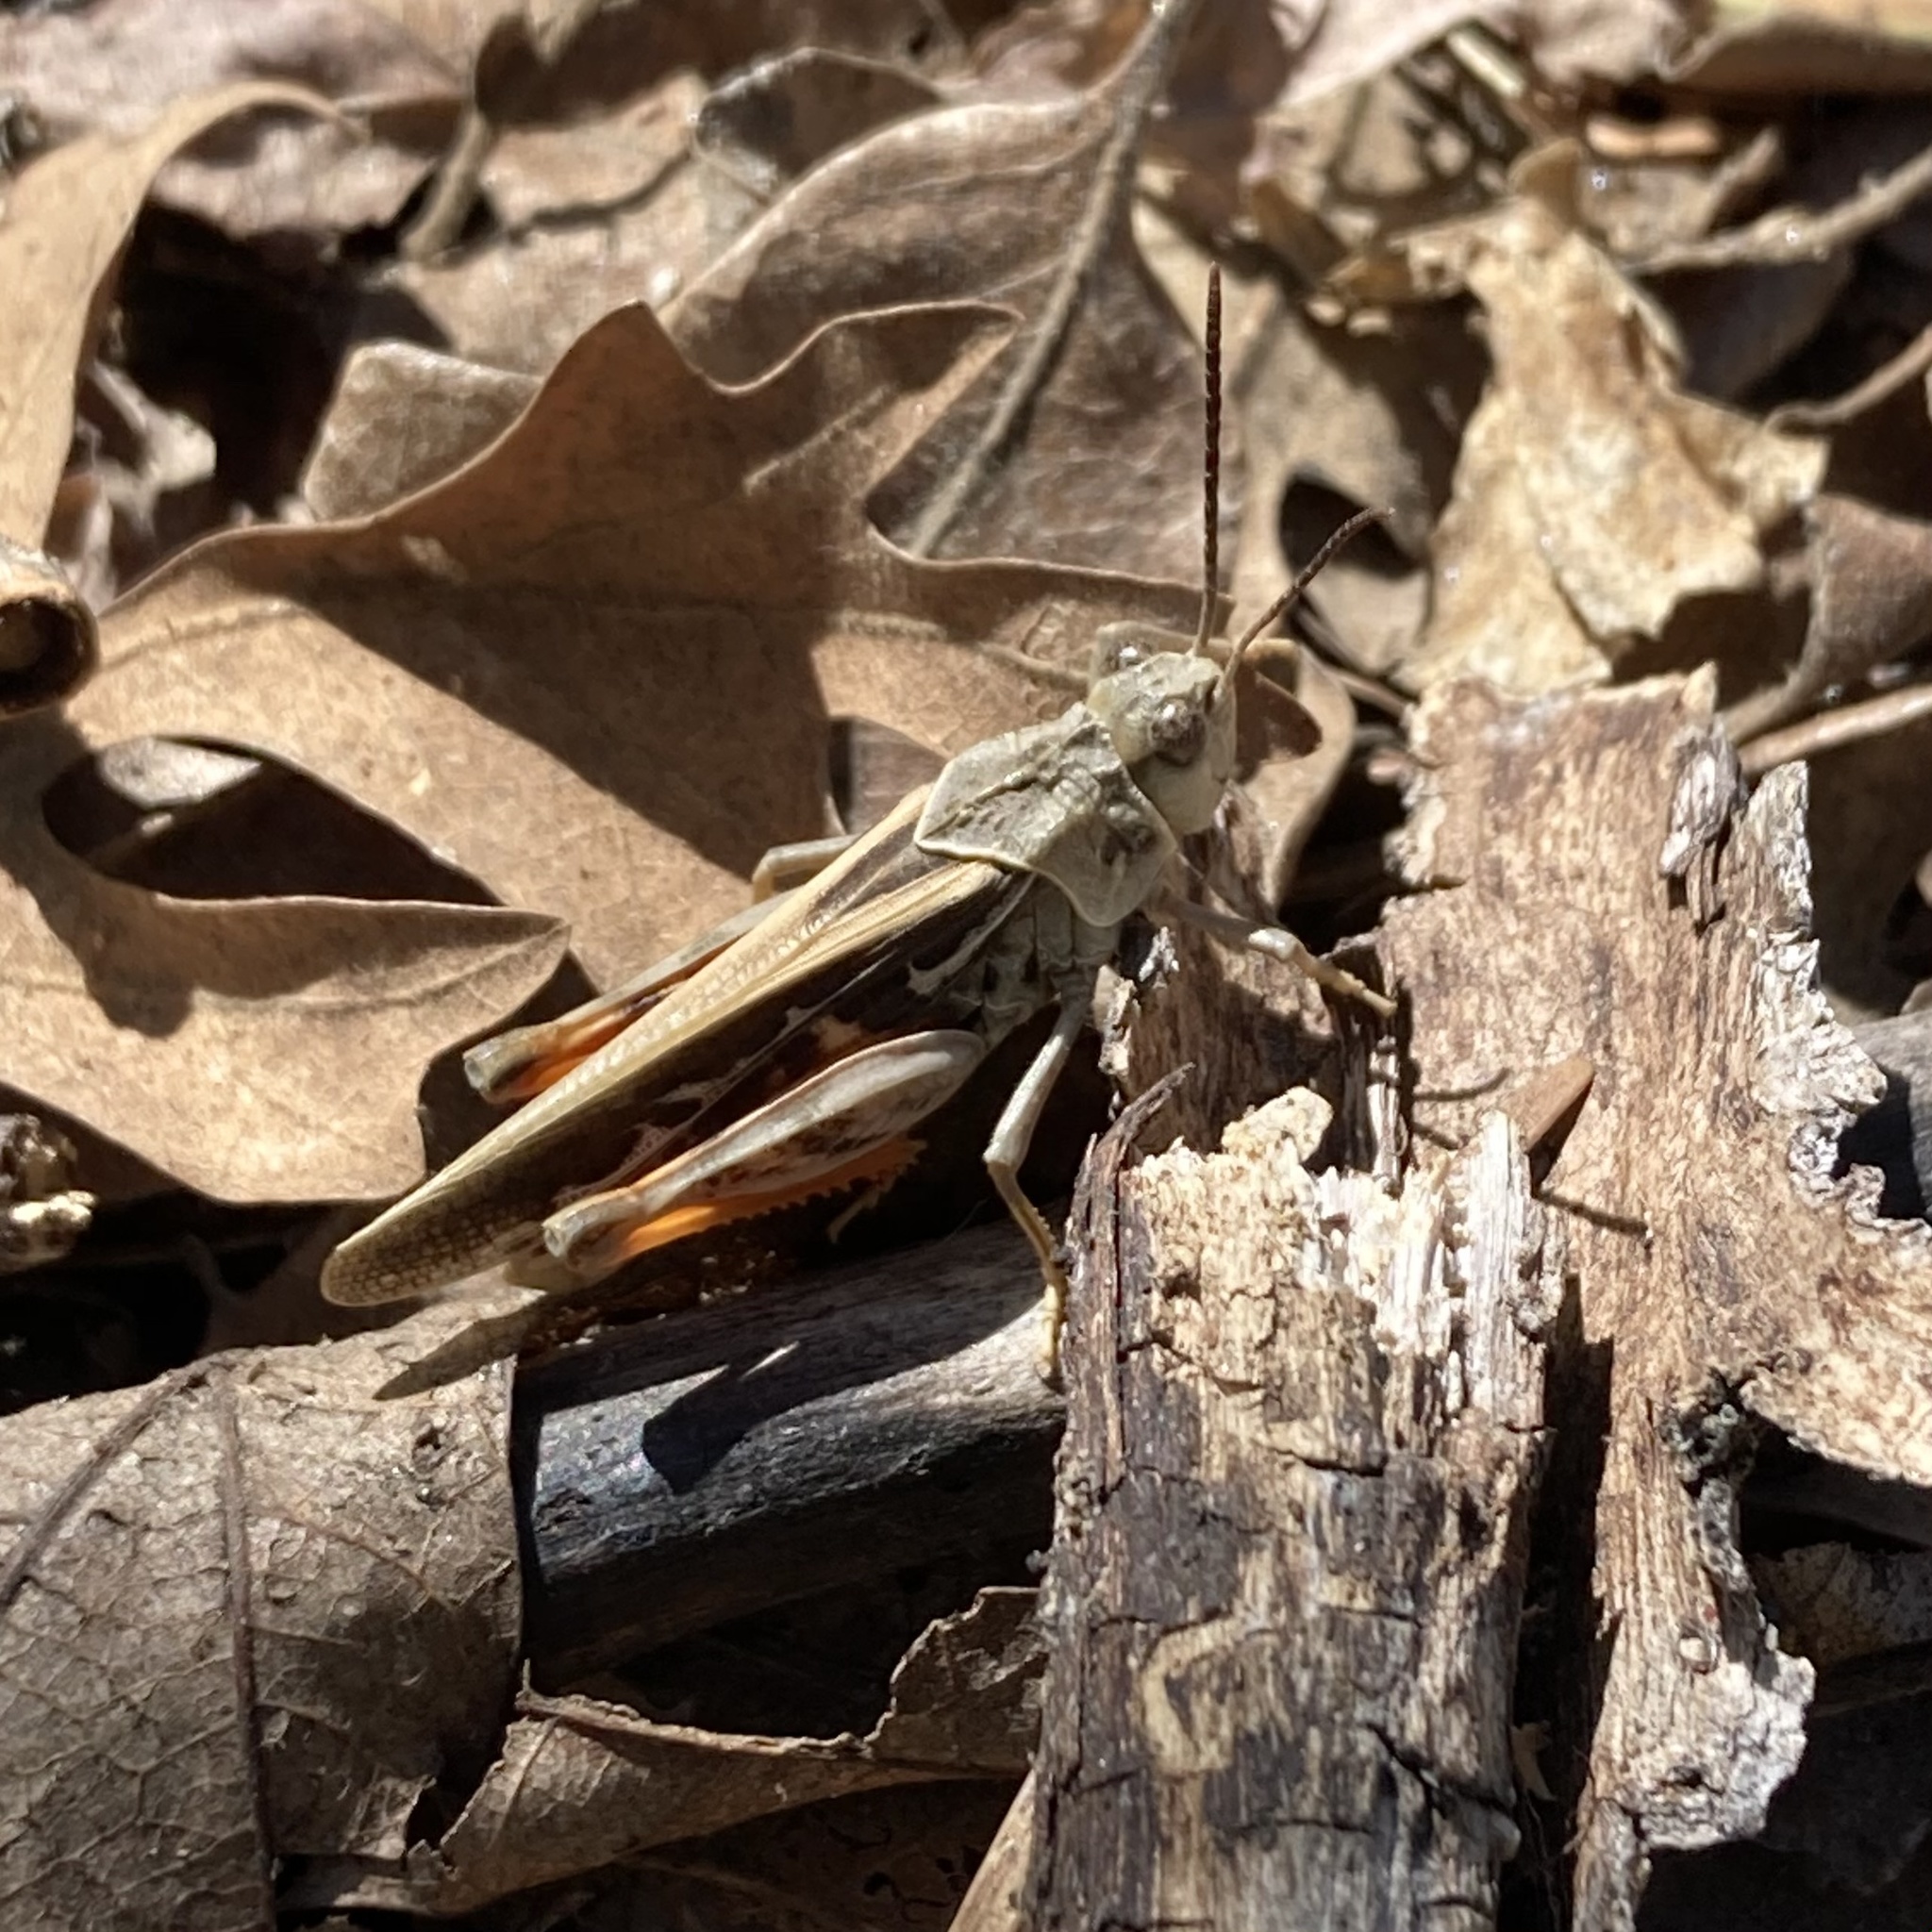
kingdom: Animalia
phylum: Arthropoda
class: Insecta
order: Orthoptera
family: Acrididae
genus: Xanthippus
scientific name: Xanthippus corallipes
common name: Redshanked grasshopper
